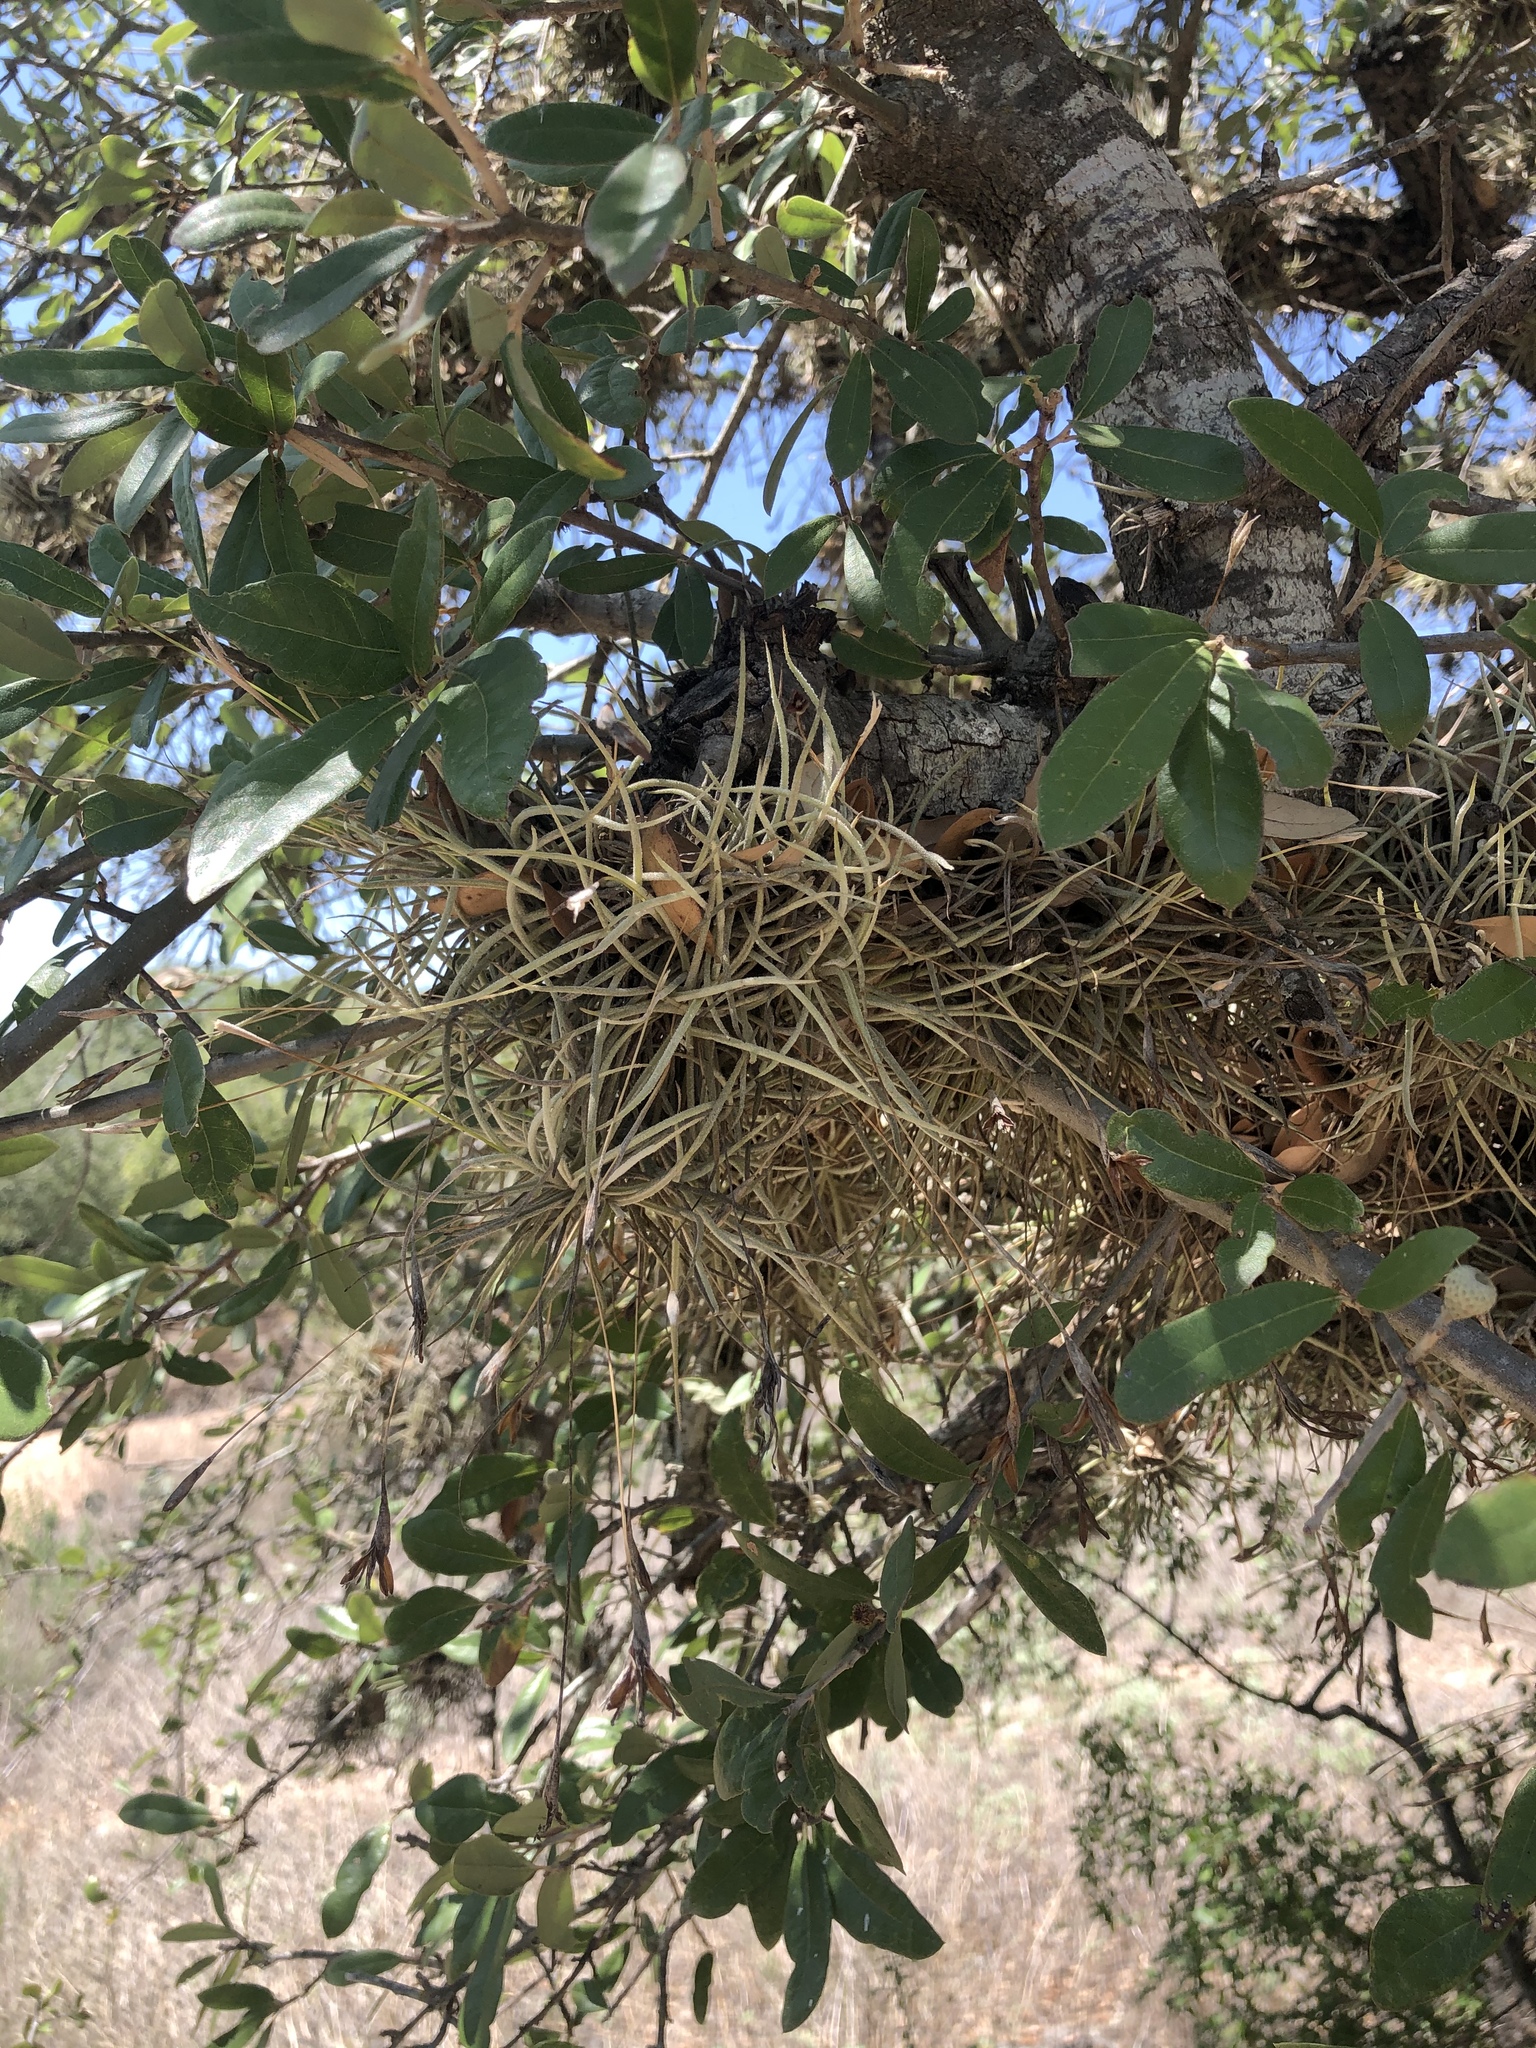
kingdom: Plantae
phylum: Tracheophyta
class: Liliopsida
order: Poales
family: Bromeliaceae
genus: Tillandsia
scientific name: Tillandsia recurvata
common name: Small ballmoss
